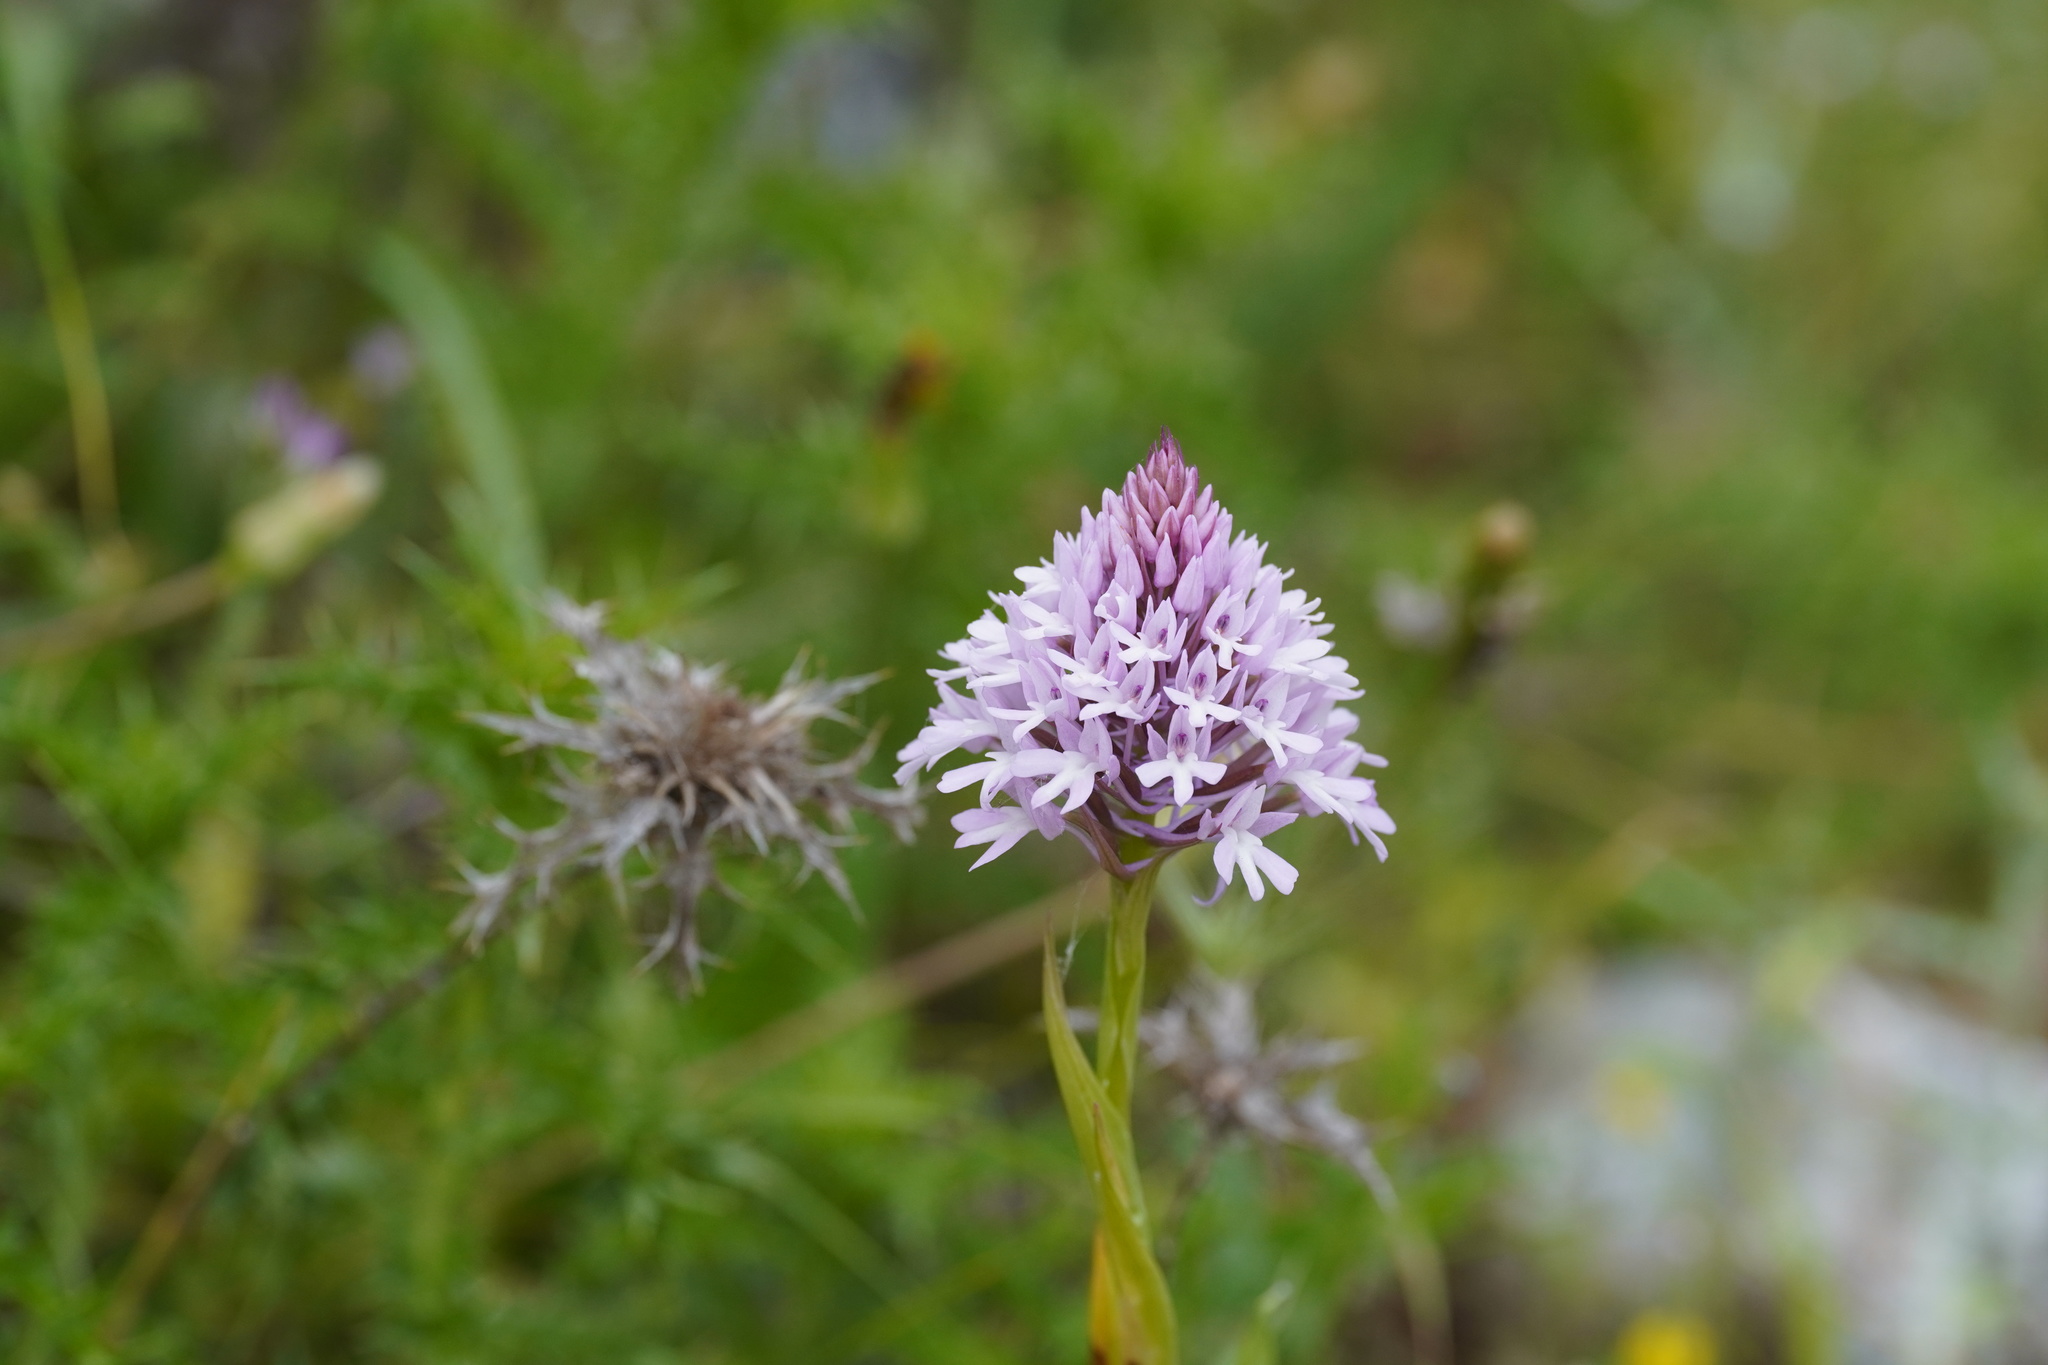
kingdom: Plantae
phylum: Tracheophyta
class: Liliopsida
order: Asparagales
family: Orchidaceae
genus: Anacamptis
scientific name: Anacamptis pyramidalis
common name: Pyramidal orchid
